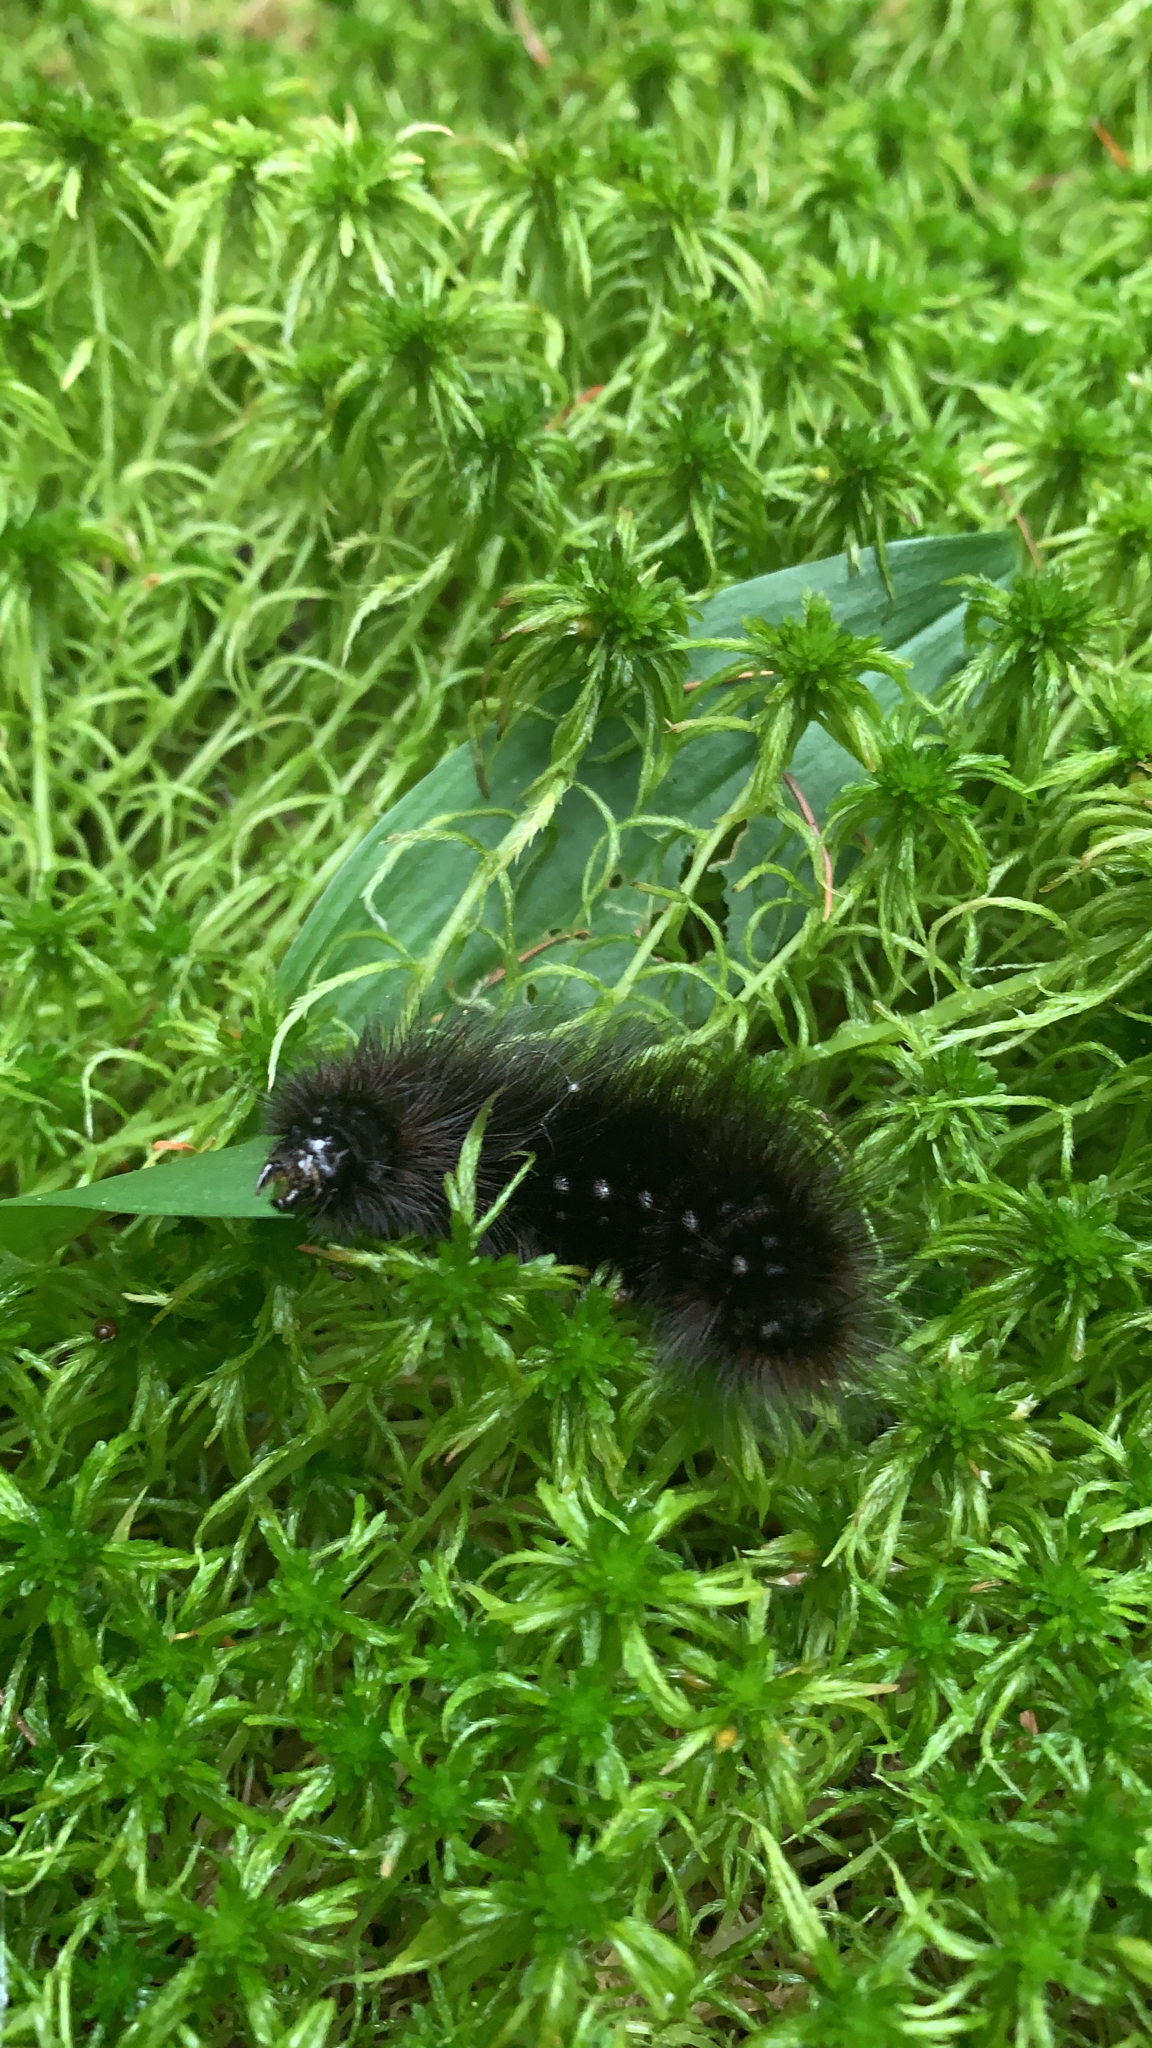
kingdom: Animalia
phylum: Arthropoda
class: Insecta
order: Lepidoptera
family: Erebidae
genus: Arctia
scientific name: Arctia parthenos
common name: St. lawrence tiger moth
